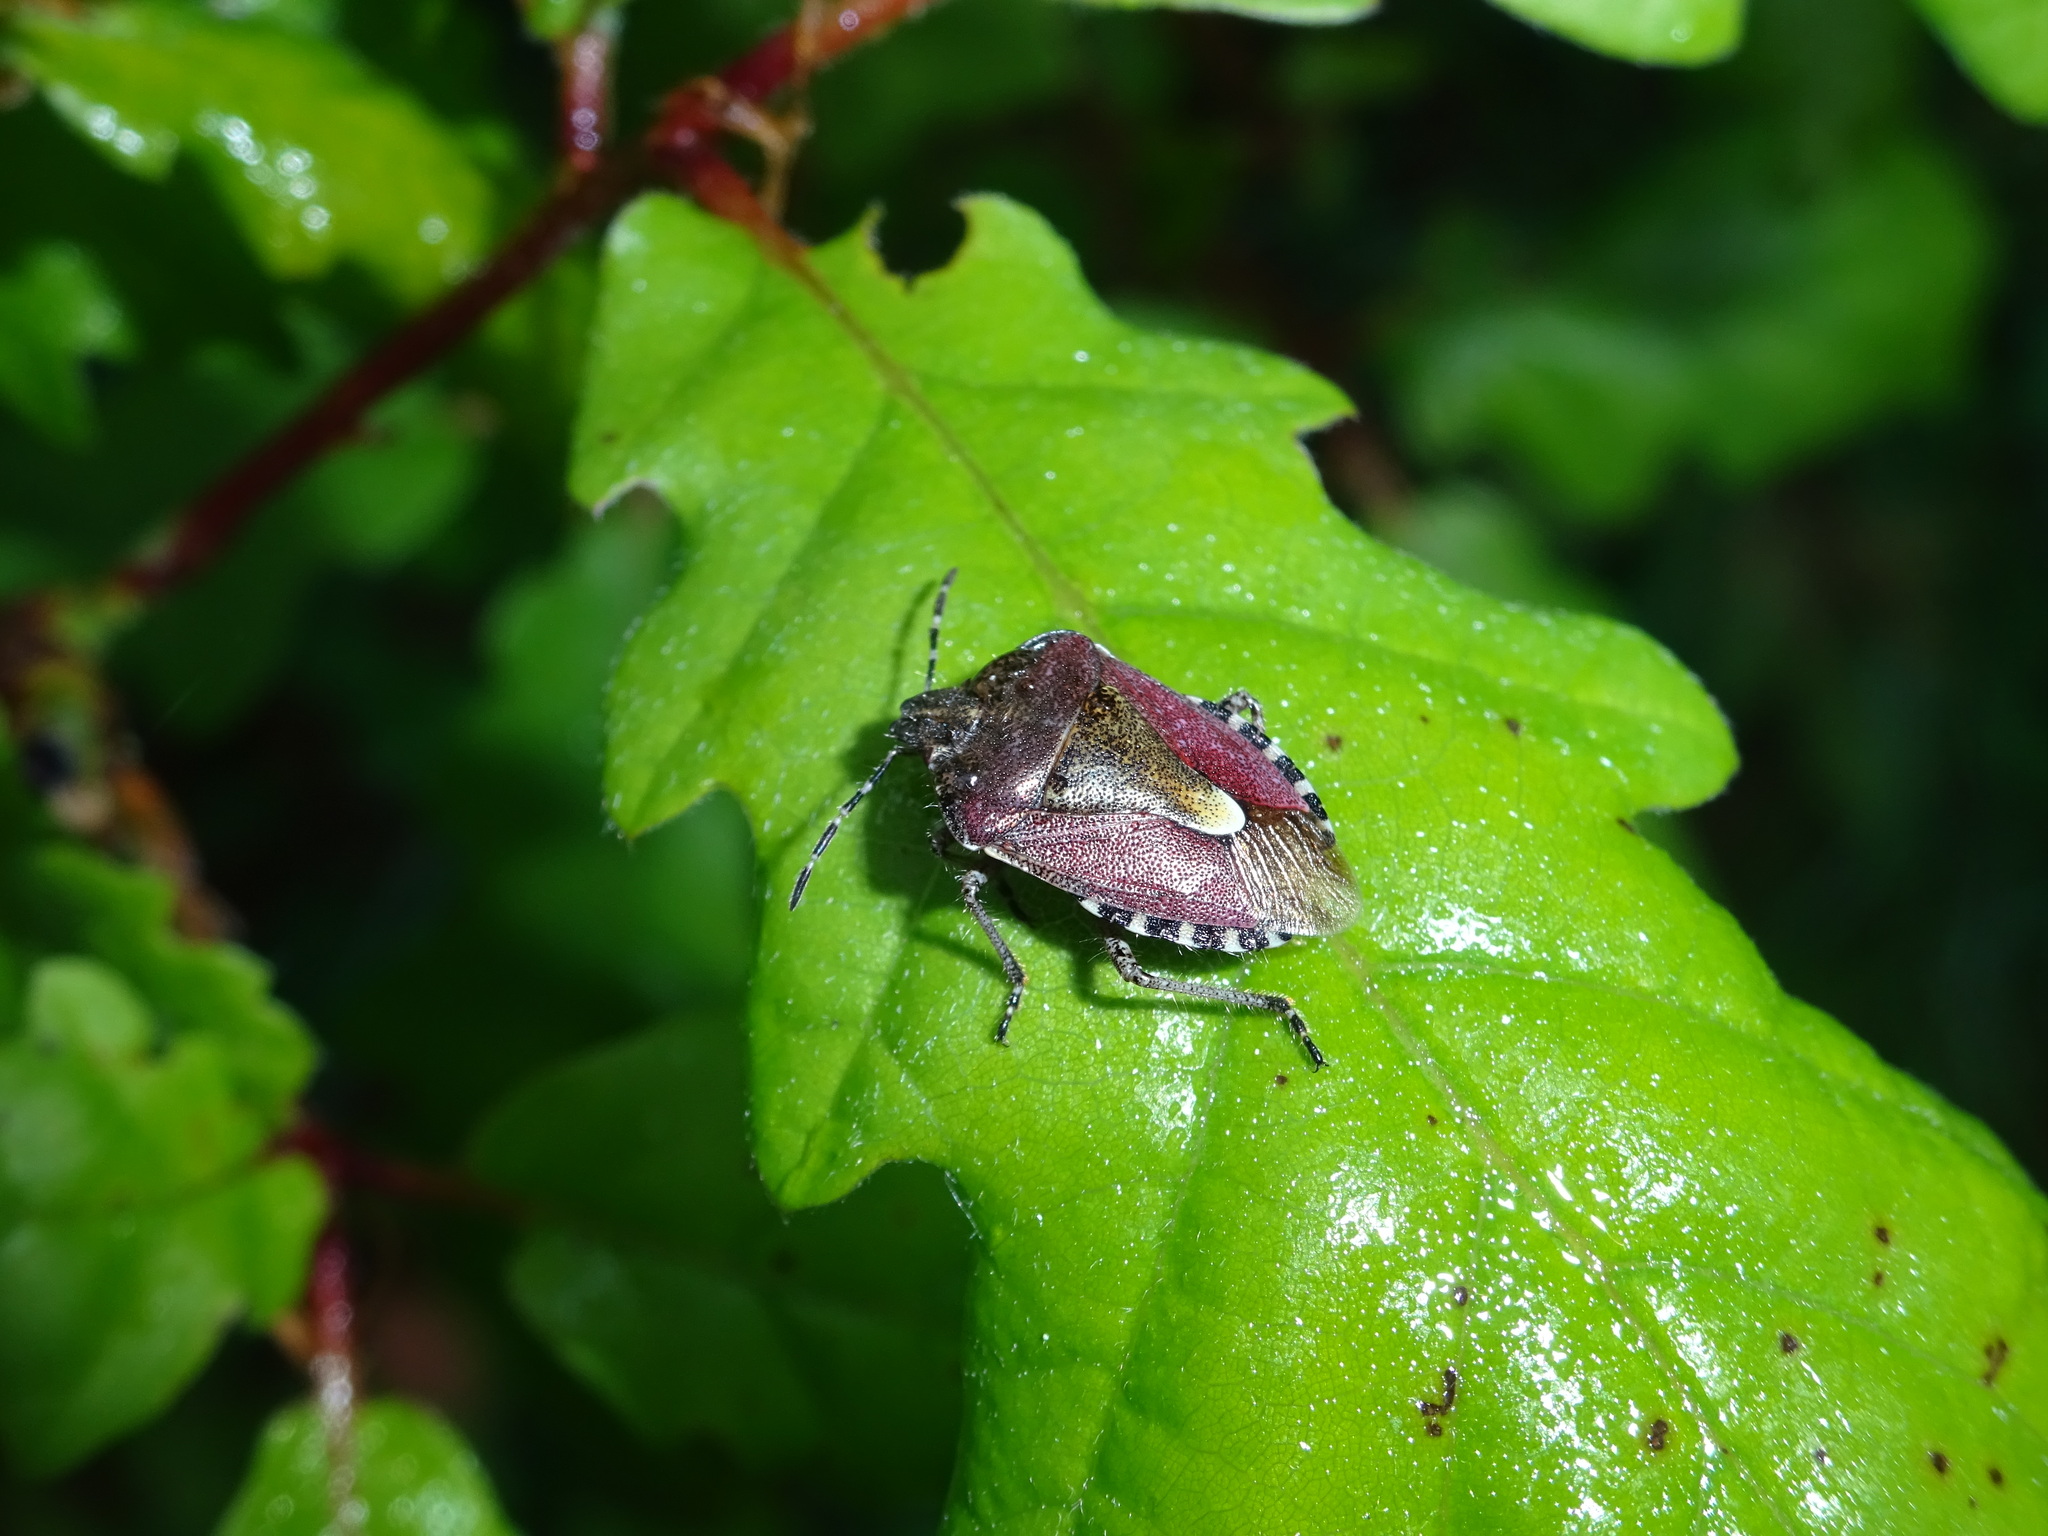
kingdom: Animalia
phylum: Arthropoda
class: Insecta
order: Hemiptera
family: Pentatomidae
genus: Dolycoris
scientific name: Dolycoris baccarum
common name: Sloe bug
